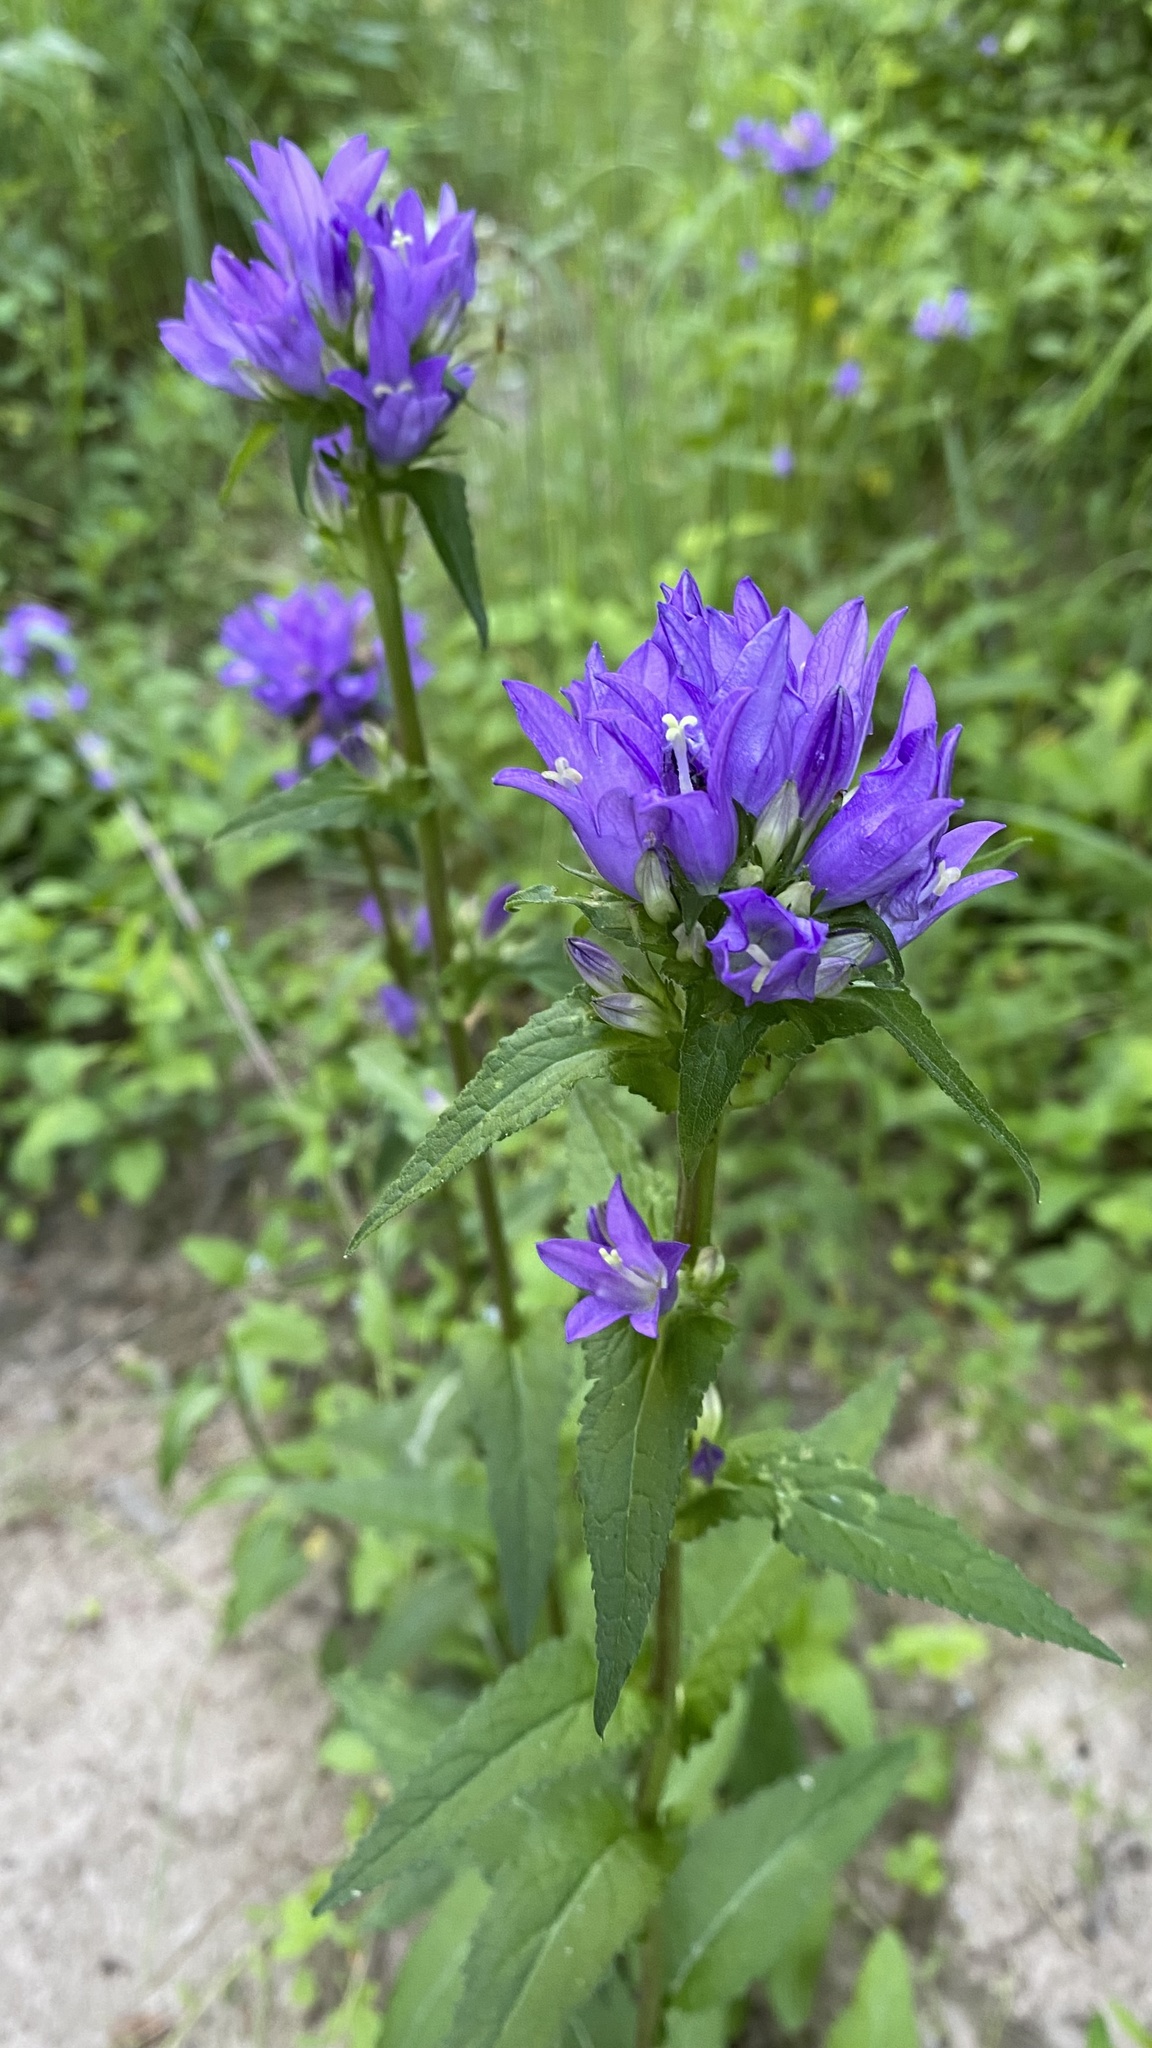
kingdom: Plantae
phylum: Tracheophyta
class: Magnoliopsida
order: Asterales
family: Campanulaceae
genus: Campanula
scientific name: Campanula glomerata
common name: Clustered bellflower
